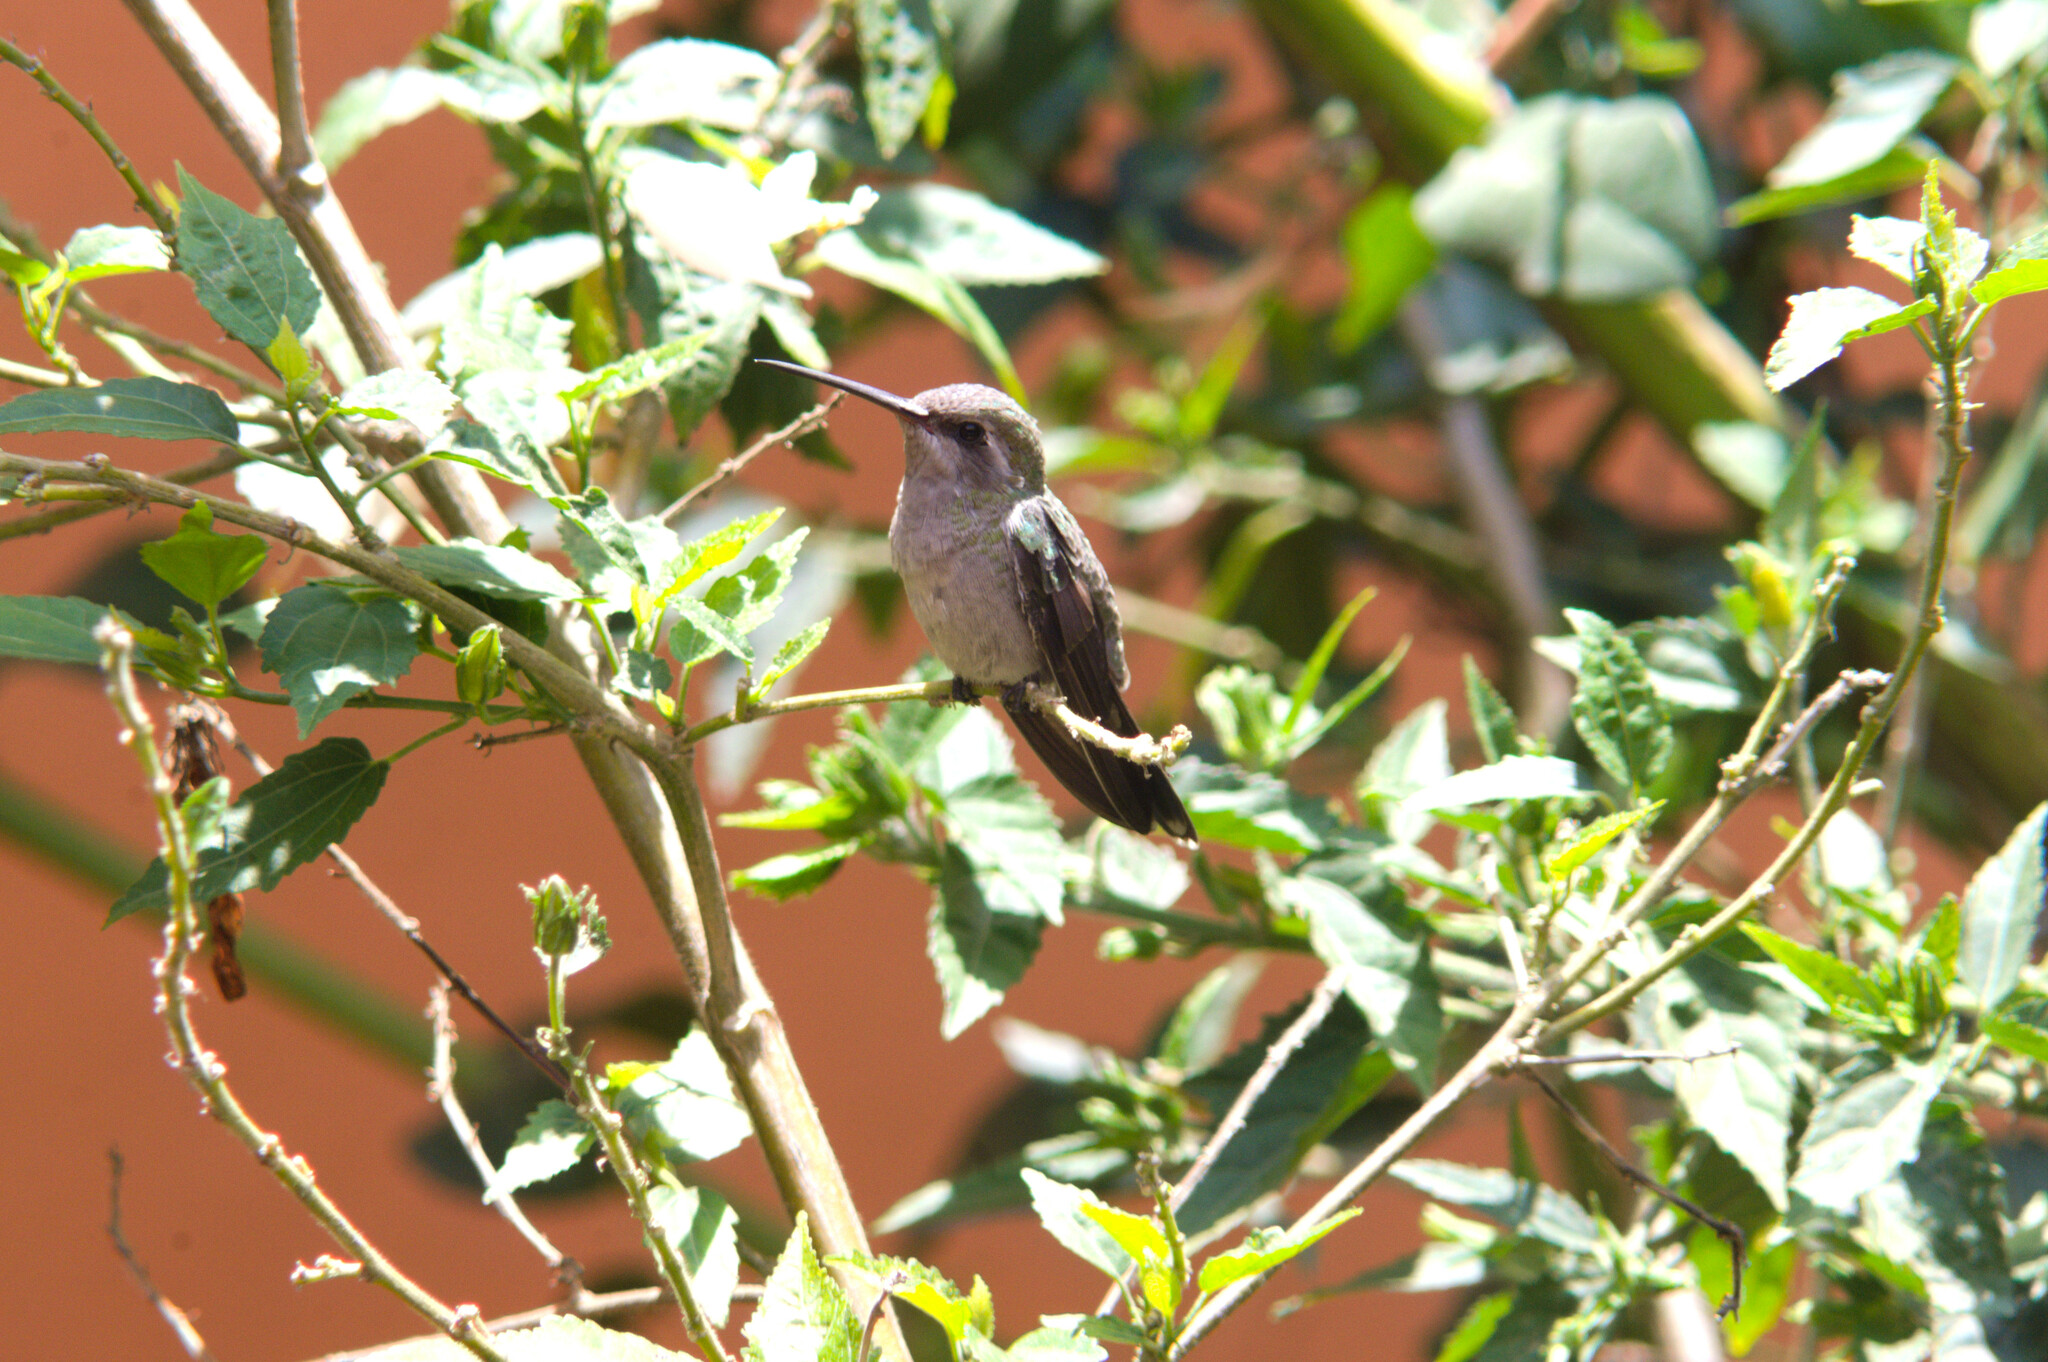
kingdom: Animalia
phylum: Chordata
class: Aves
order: Apodiformes
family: Trochilidae
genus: Cynanthus
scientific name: Cynanthus latirostris
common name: Broad-billed hummingbird
